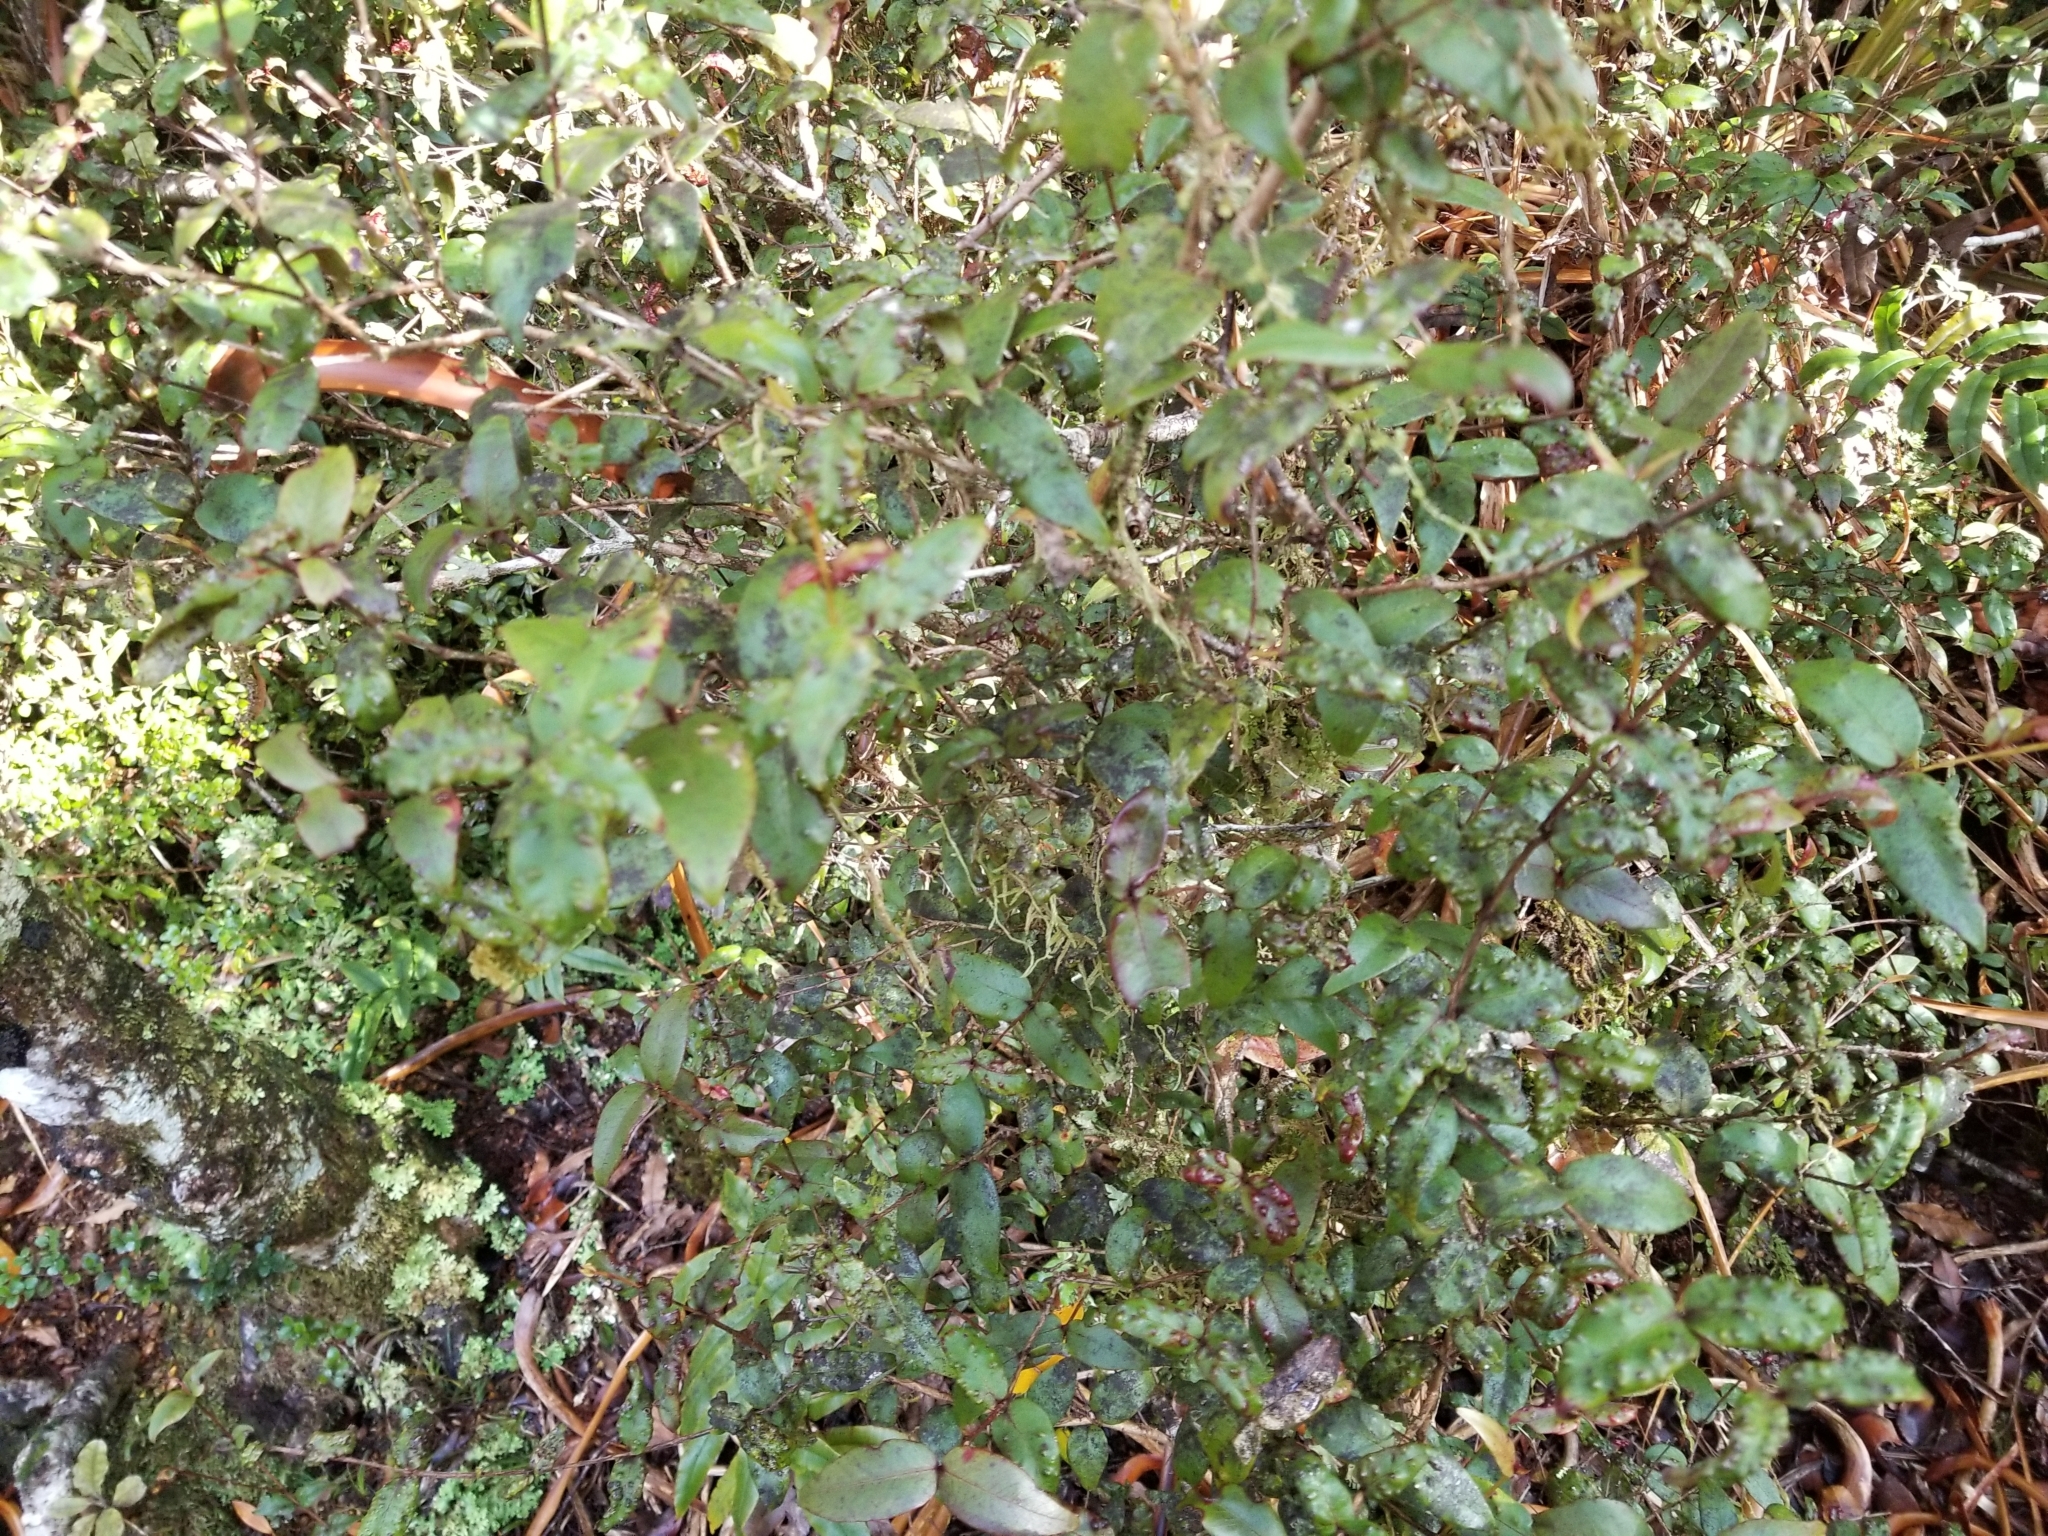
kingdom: Plantae
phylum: Tracheophyta
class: Magnoliopsida
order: Myrtales
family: Myrtaceae
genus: Metrosideros
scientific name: Metrosideros parkinsonii
